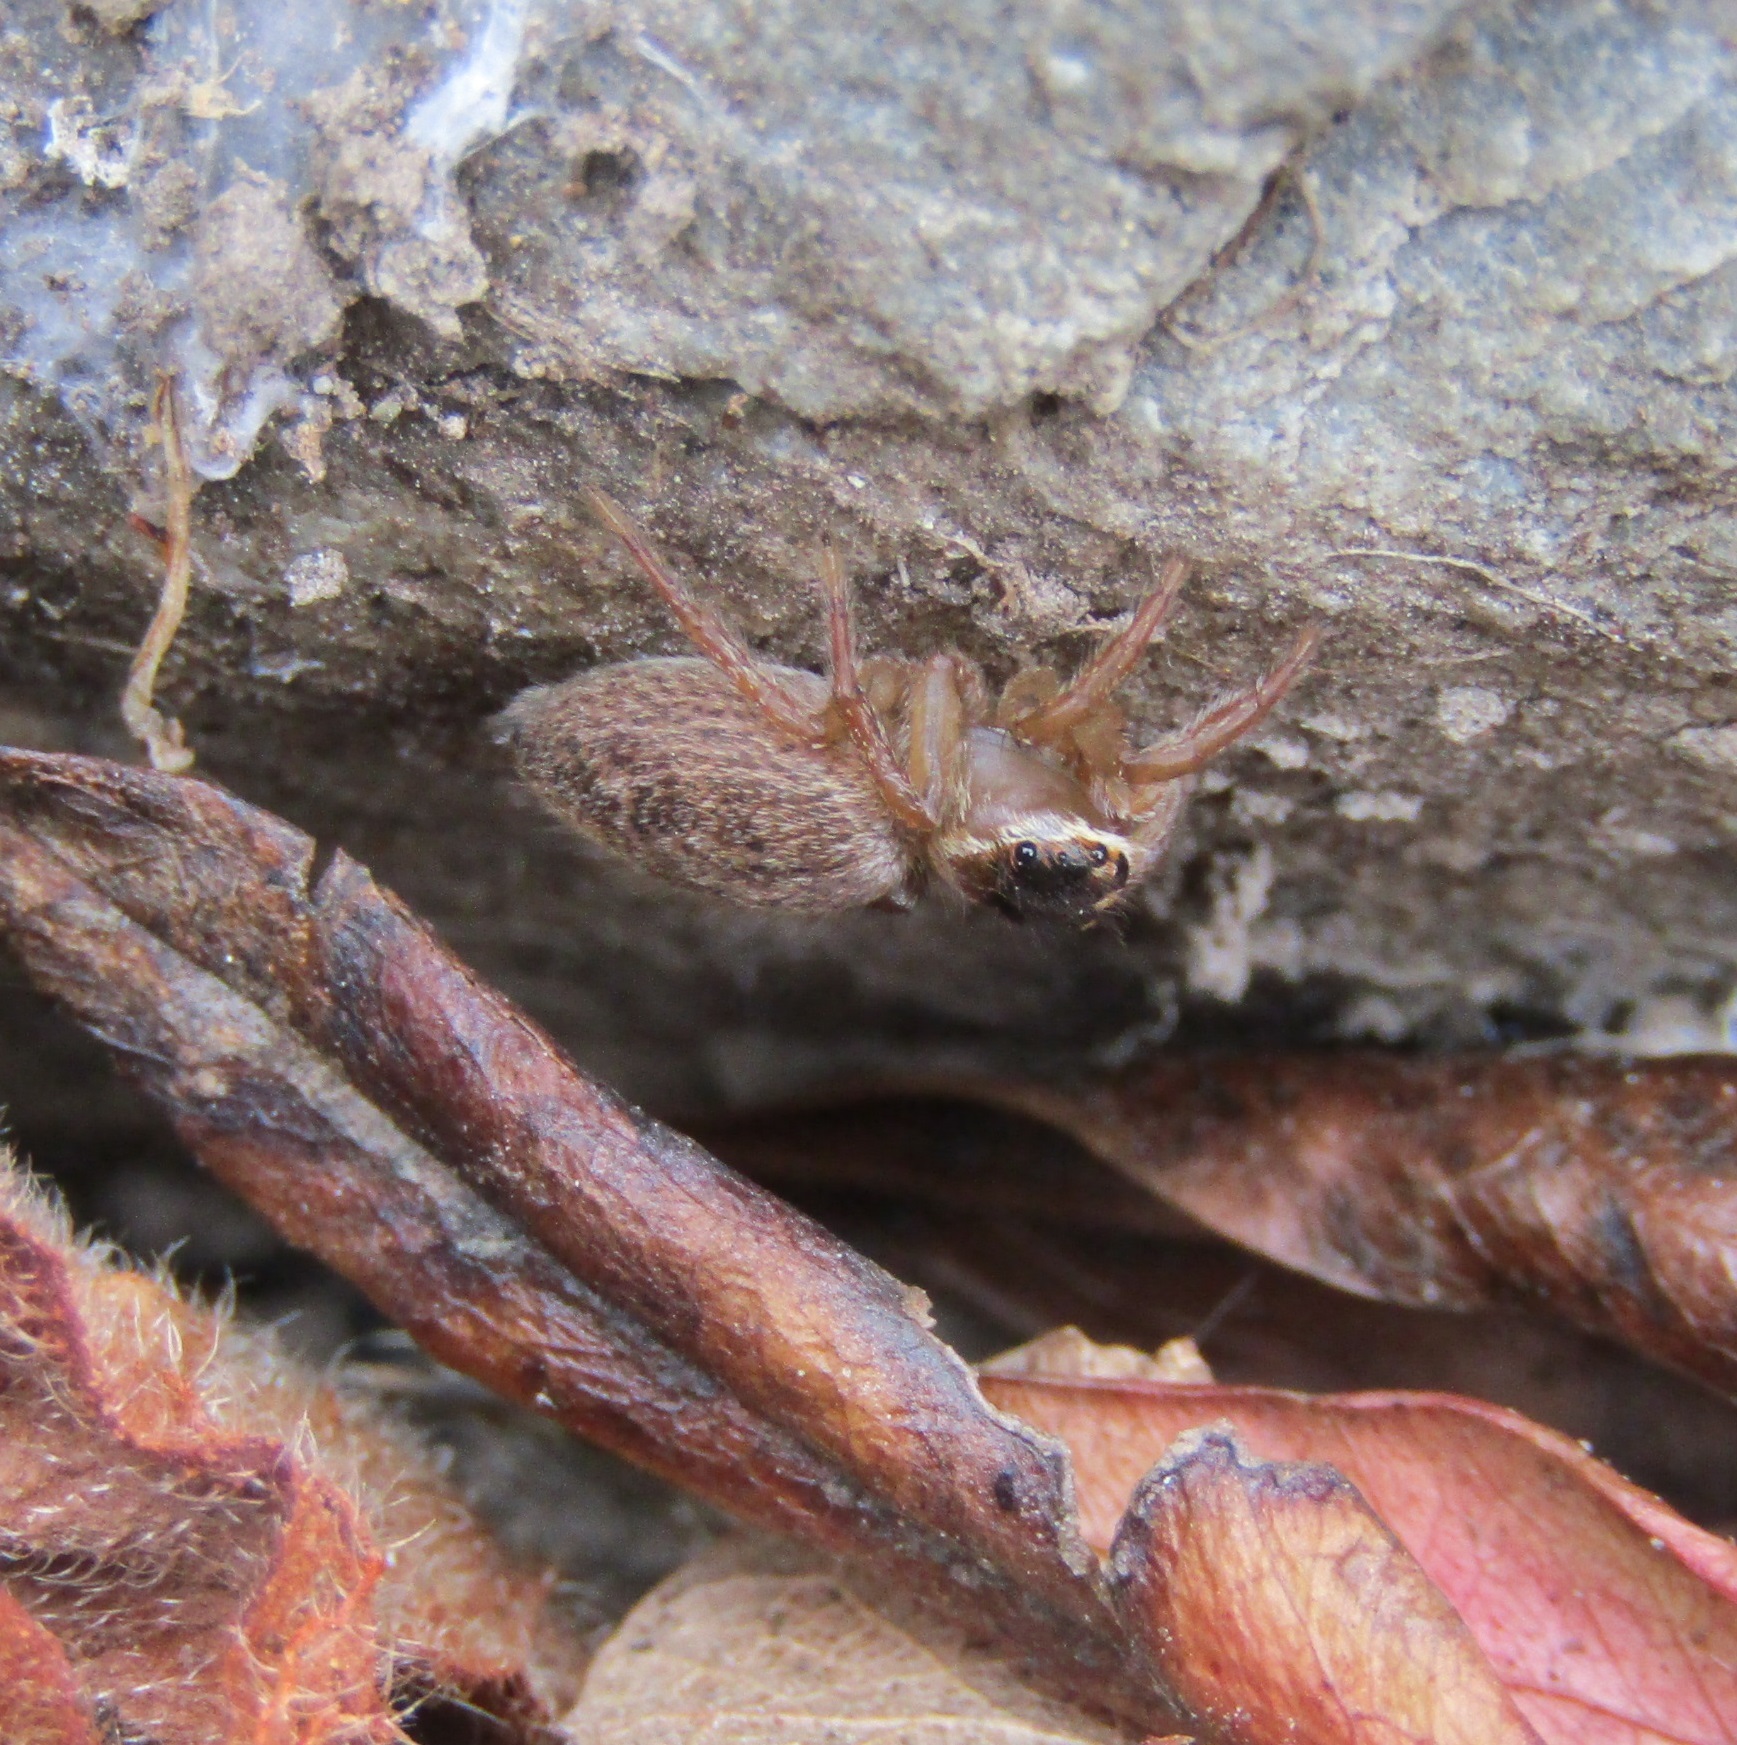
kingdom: Animalia
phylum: Arthropoda
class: Arachnida
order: Araneae
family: Salticidae
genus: Maratus
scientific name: Maratus griseus
